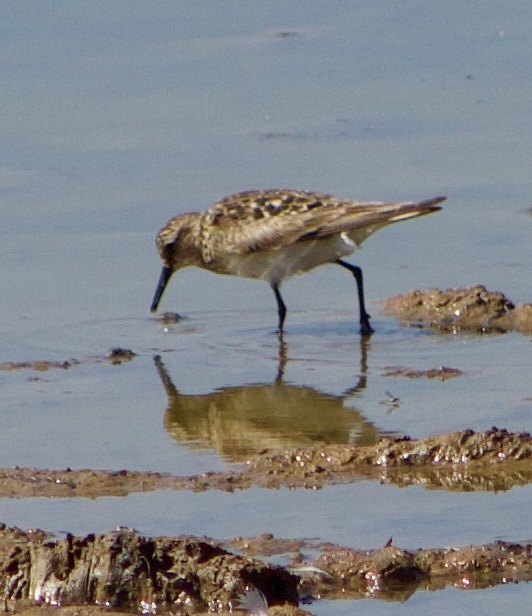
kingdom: Animalia
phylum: Chordata
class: Aves
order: Charadriiformes
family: Scolopacidae
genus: Calidris
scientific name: Calidris bairdii
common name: Baird's sandpiper
